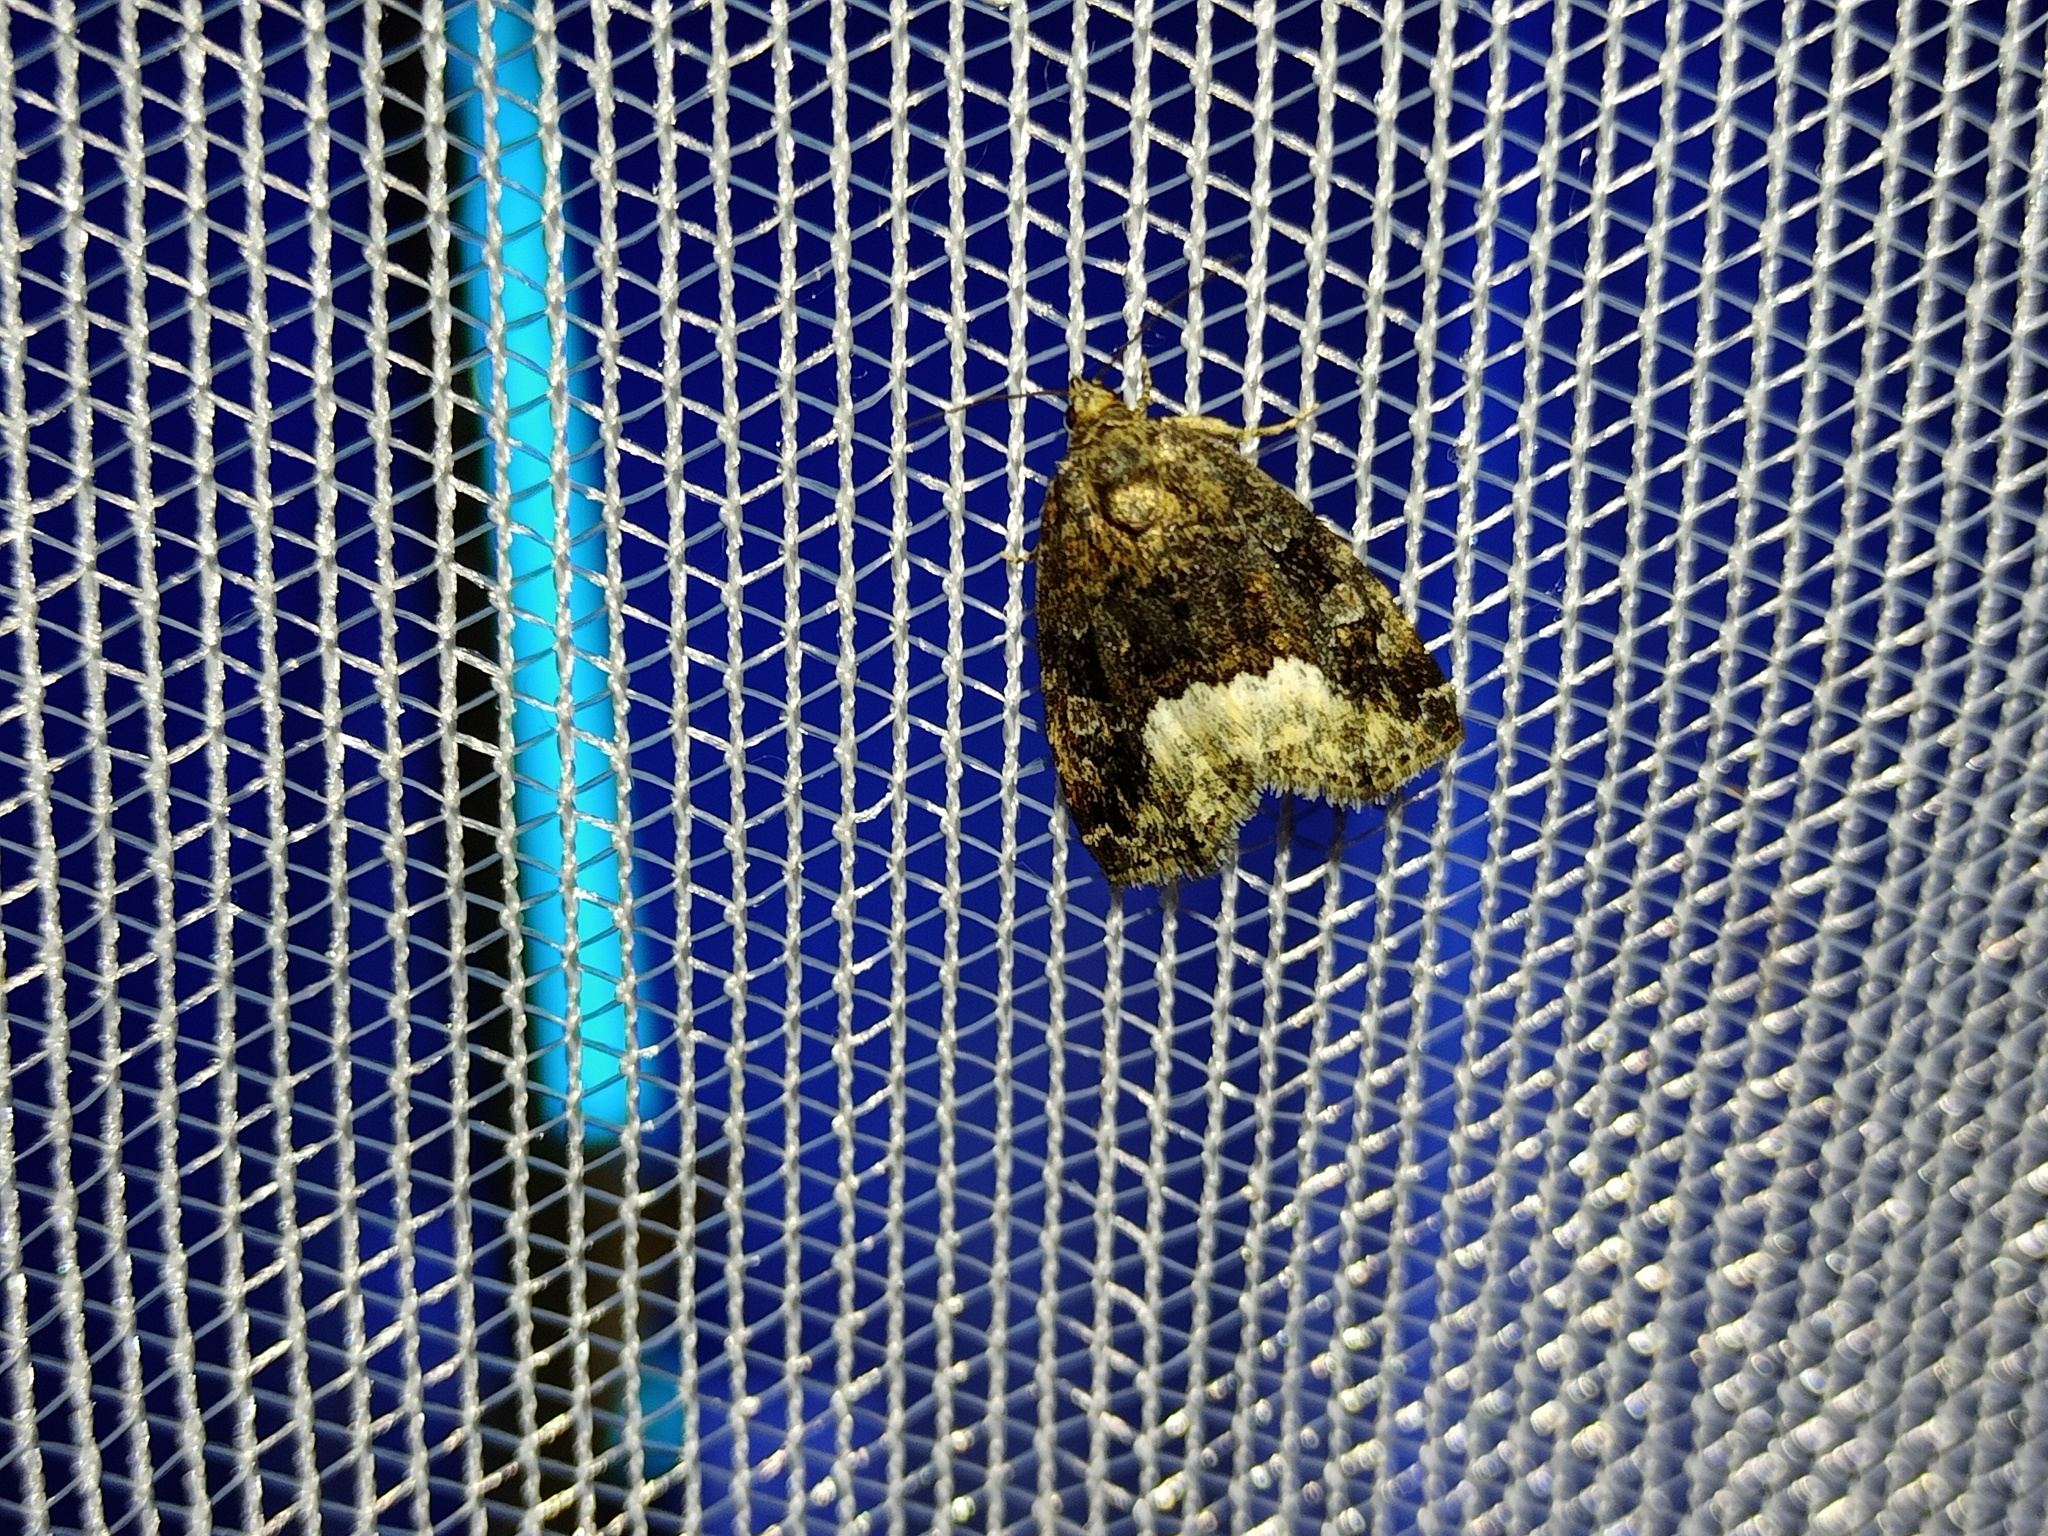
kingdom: Animalia
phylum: Arthropoda
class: Insecta
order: Lepidoptera
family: Noctuidae
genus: Deltote
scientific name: Deltote pygarga
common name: Marbled white spot
